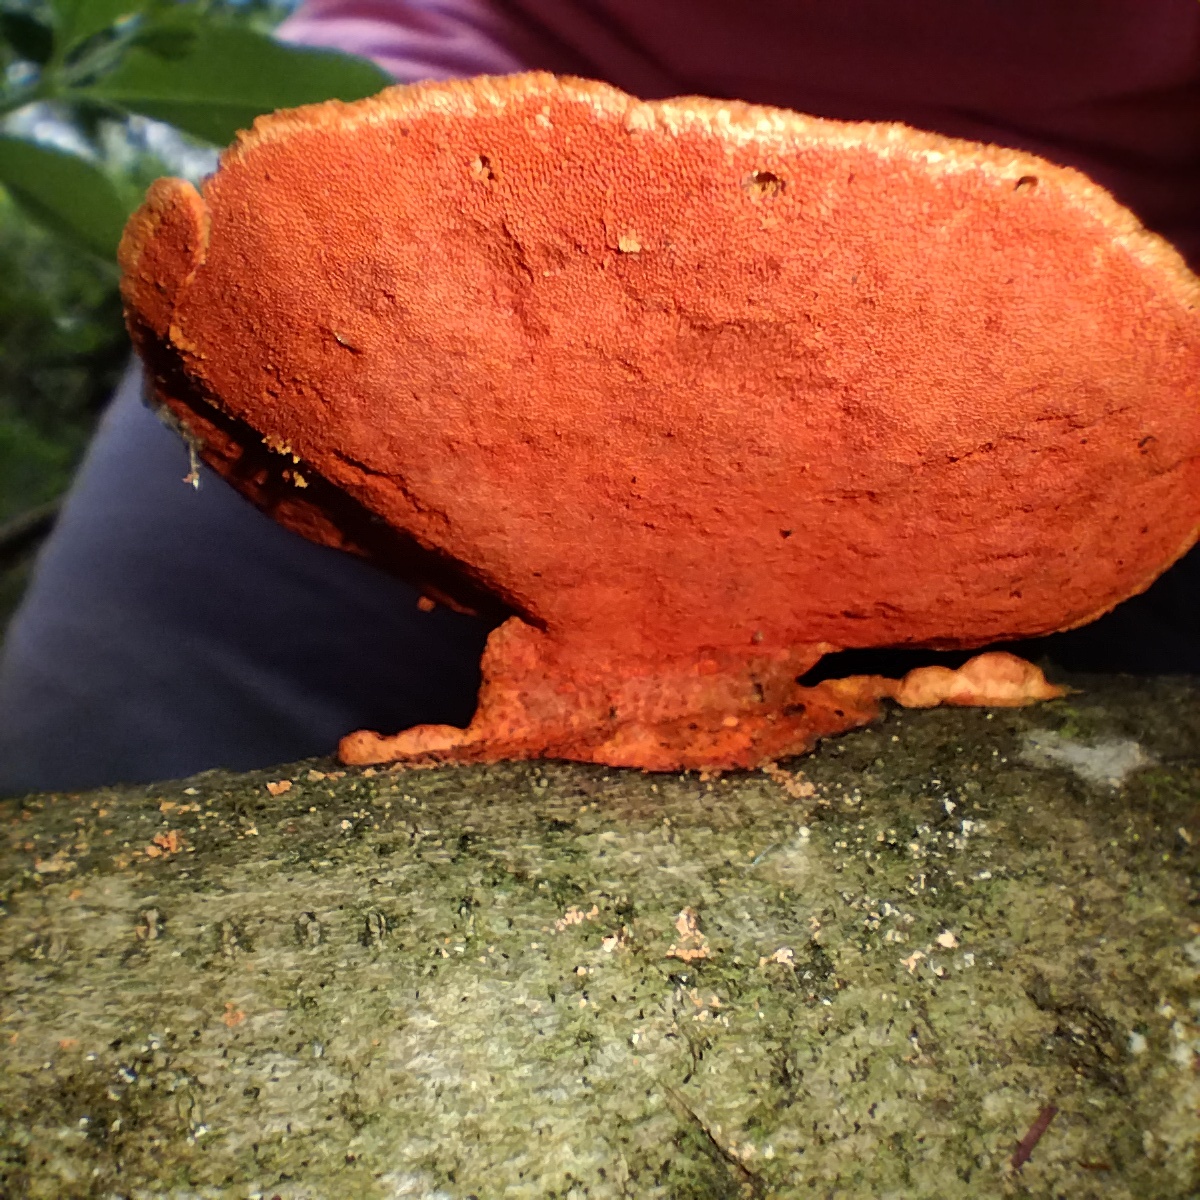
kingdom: Fungi
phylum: Basidiomycota
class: Agaricomycetes
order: Polyporales
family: Polyporaceae
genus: Trametes
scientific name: Trametes coccinea
